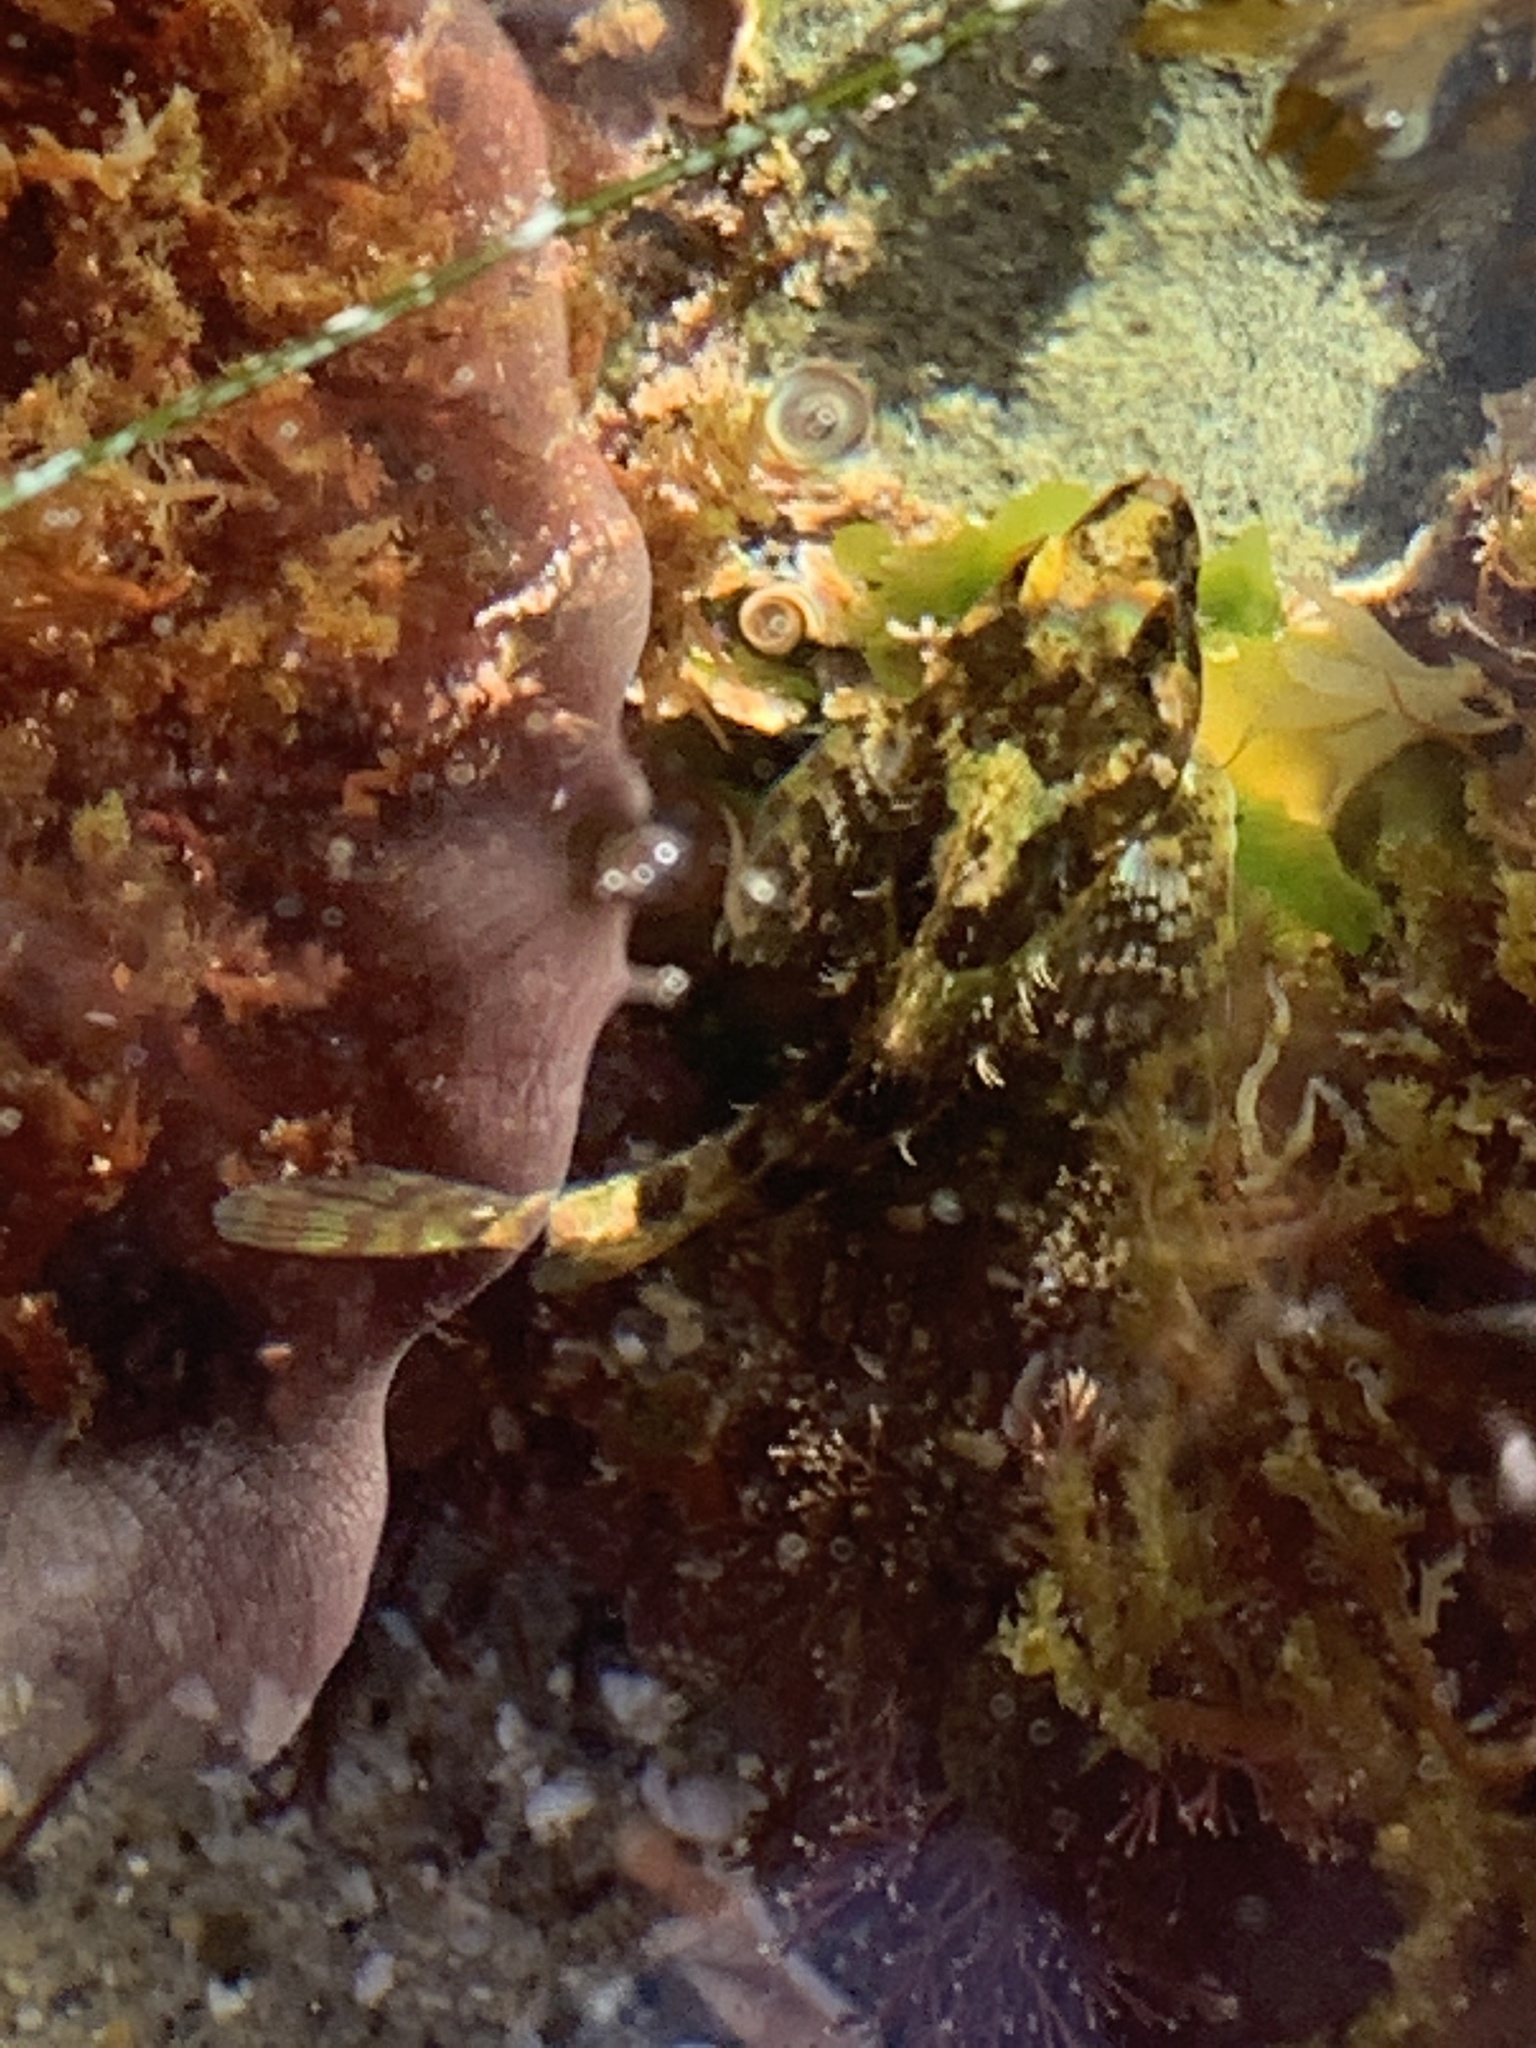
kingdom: Animalia
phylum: Chordata
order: Scorpaeniformes
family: Cottidae
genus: Clinocottus
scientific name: Clinocottus analis
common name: Woolly sculpin
